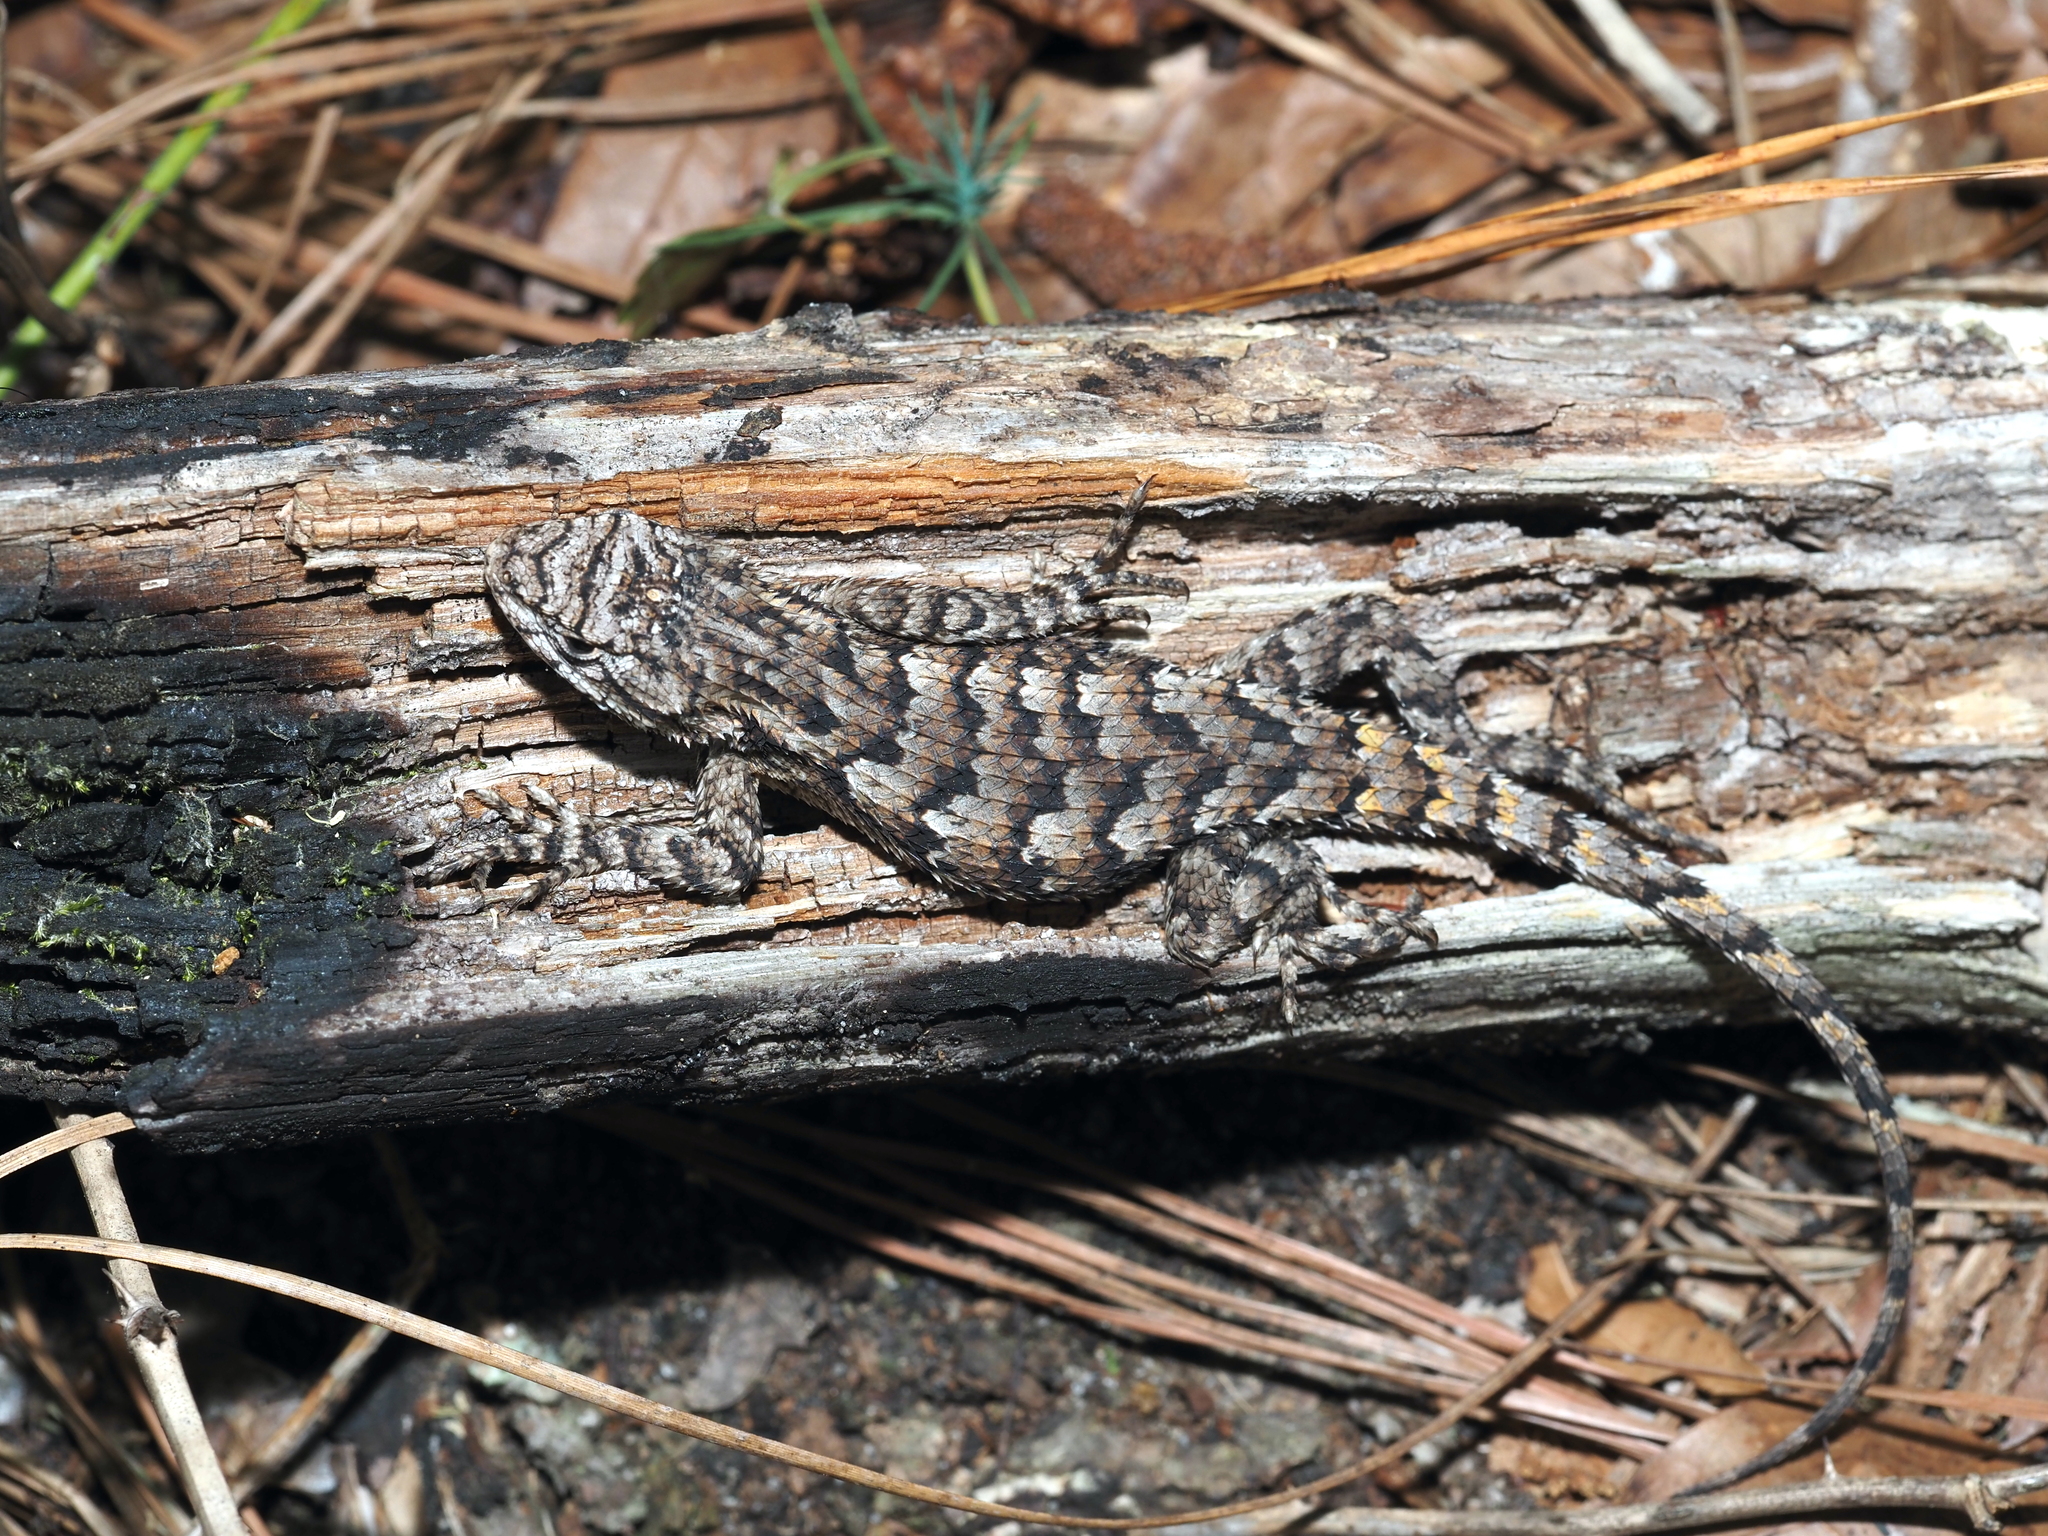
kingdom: Animalia
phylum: Chordata
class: Squamata
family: Phrynosomatidae
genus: Sceloporus
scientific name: Sceloporus undulatus
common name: Eastern fence lizard
